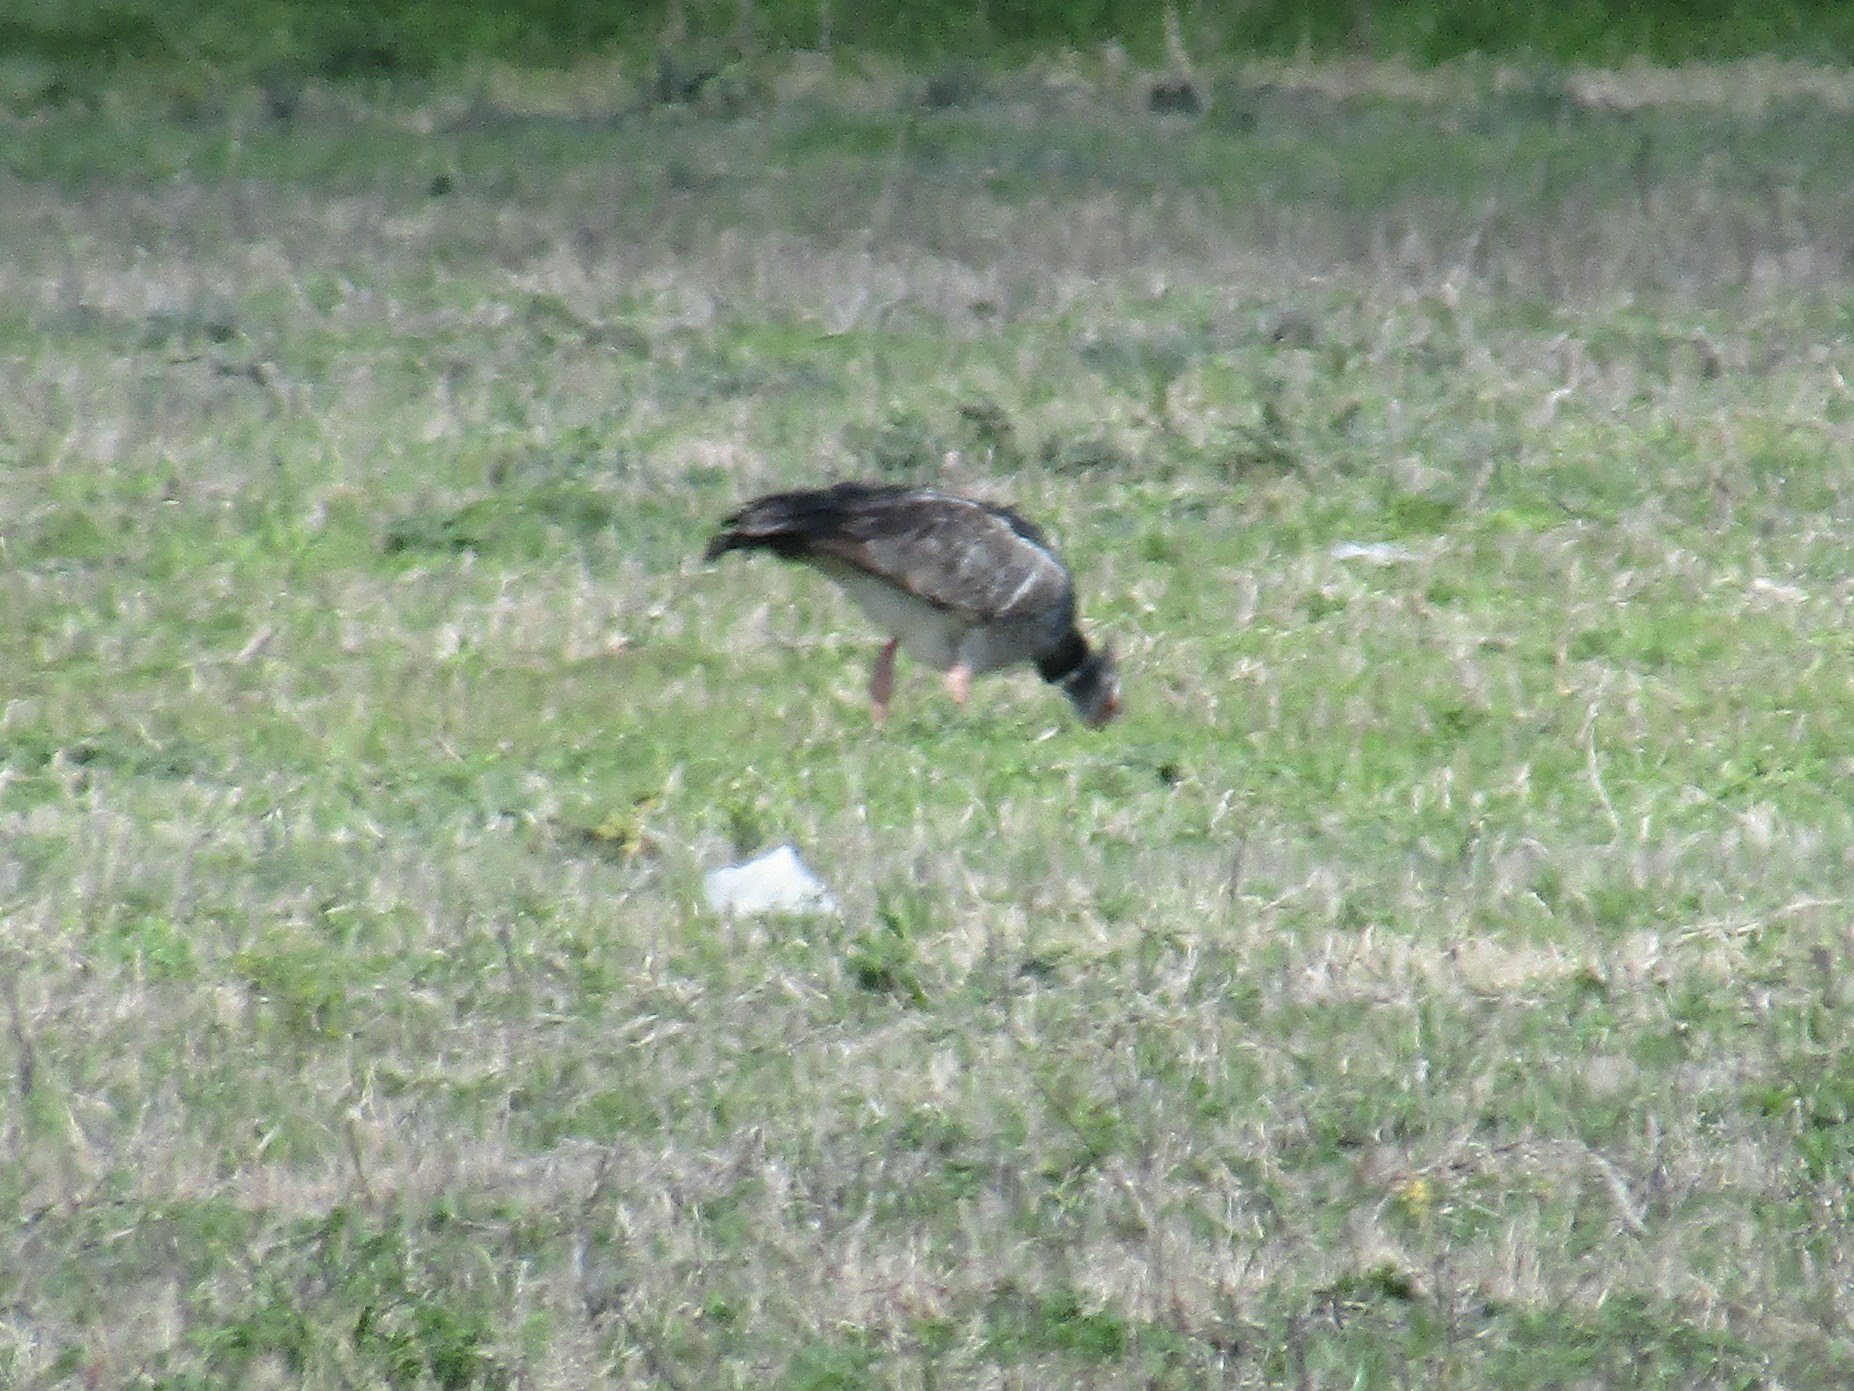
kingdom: Animalia
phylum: Chordata
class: Aves
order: Anseriformes
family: Anhimidae
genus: Chauna
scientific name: Chauna torquata
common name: Southern screamer
